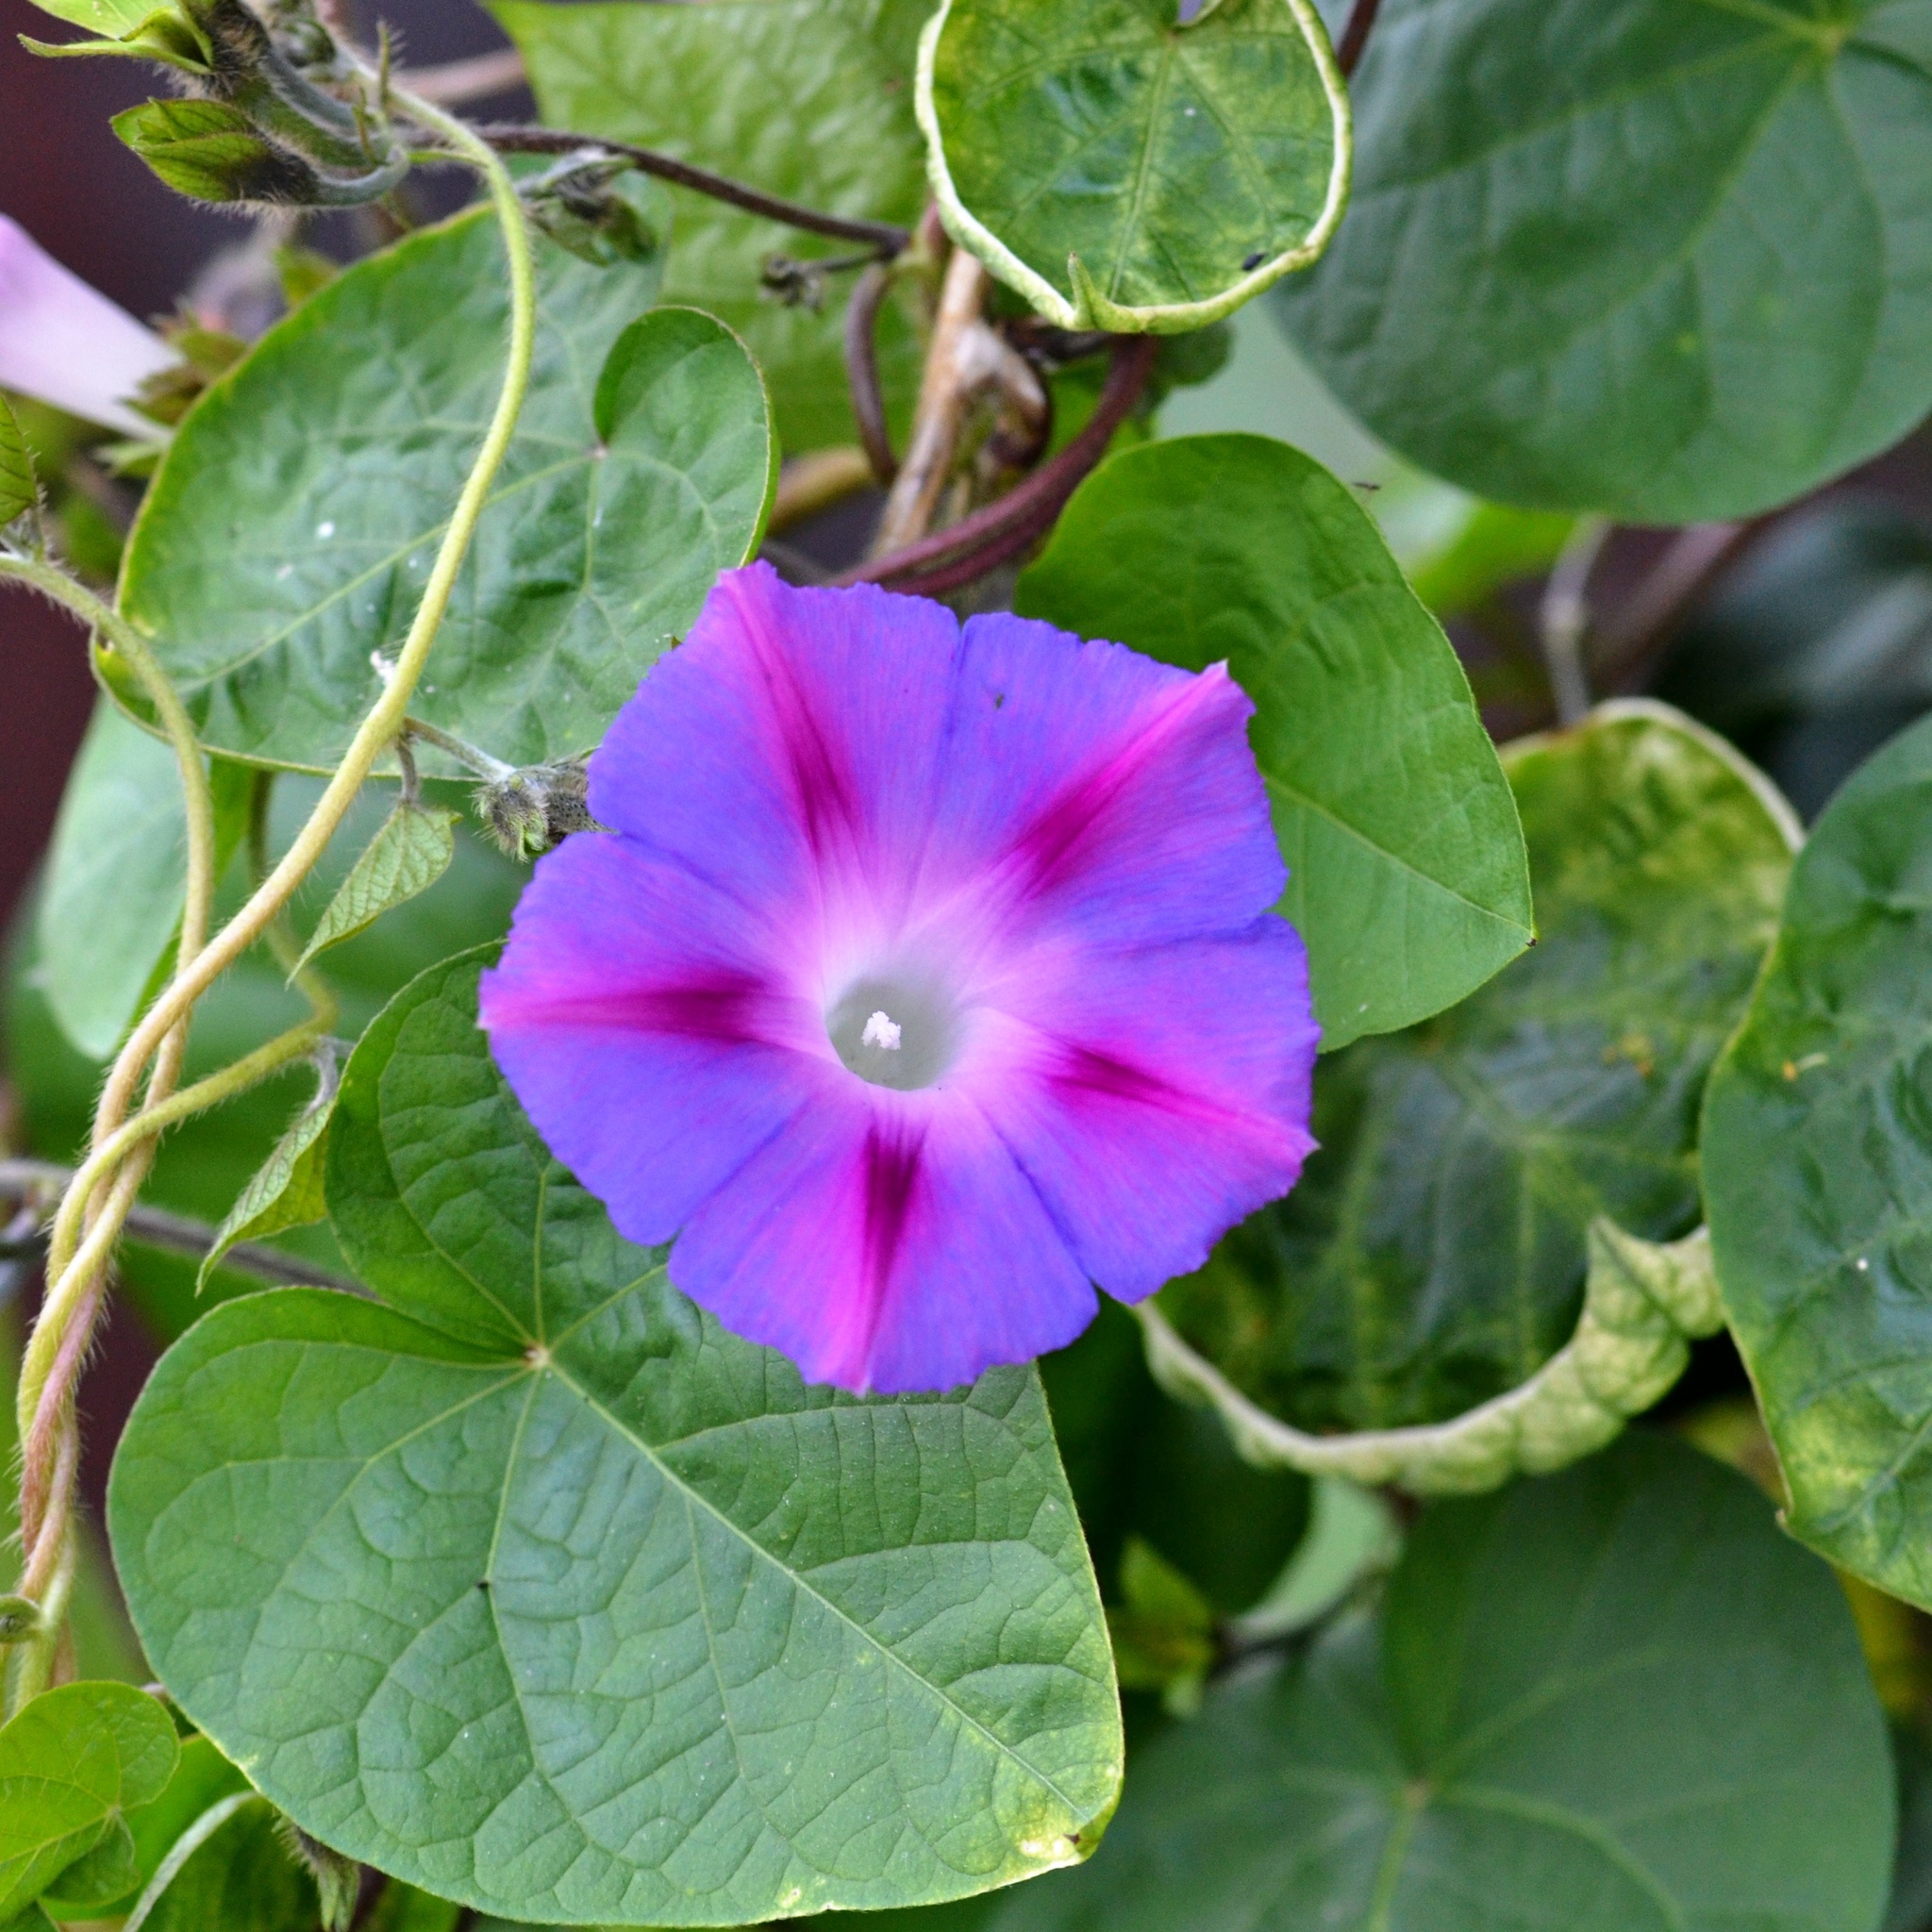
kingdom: Plantae
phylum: Tracheophyta
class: Magnoliopsida
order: Solanales
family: Convolvulaceae
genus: Ipomoea
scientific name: Ipomoea purpurea
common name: Common morning-glory
